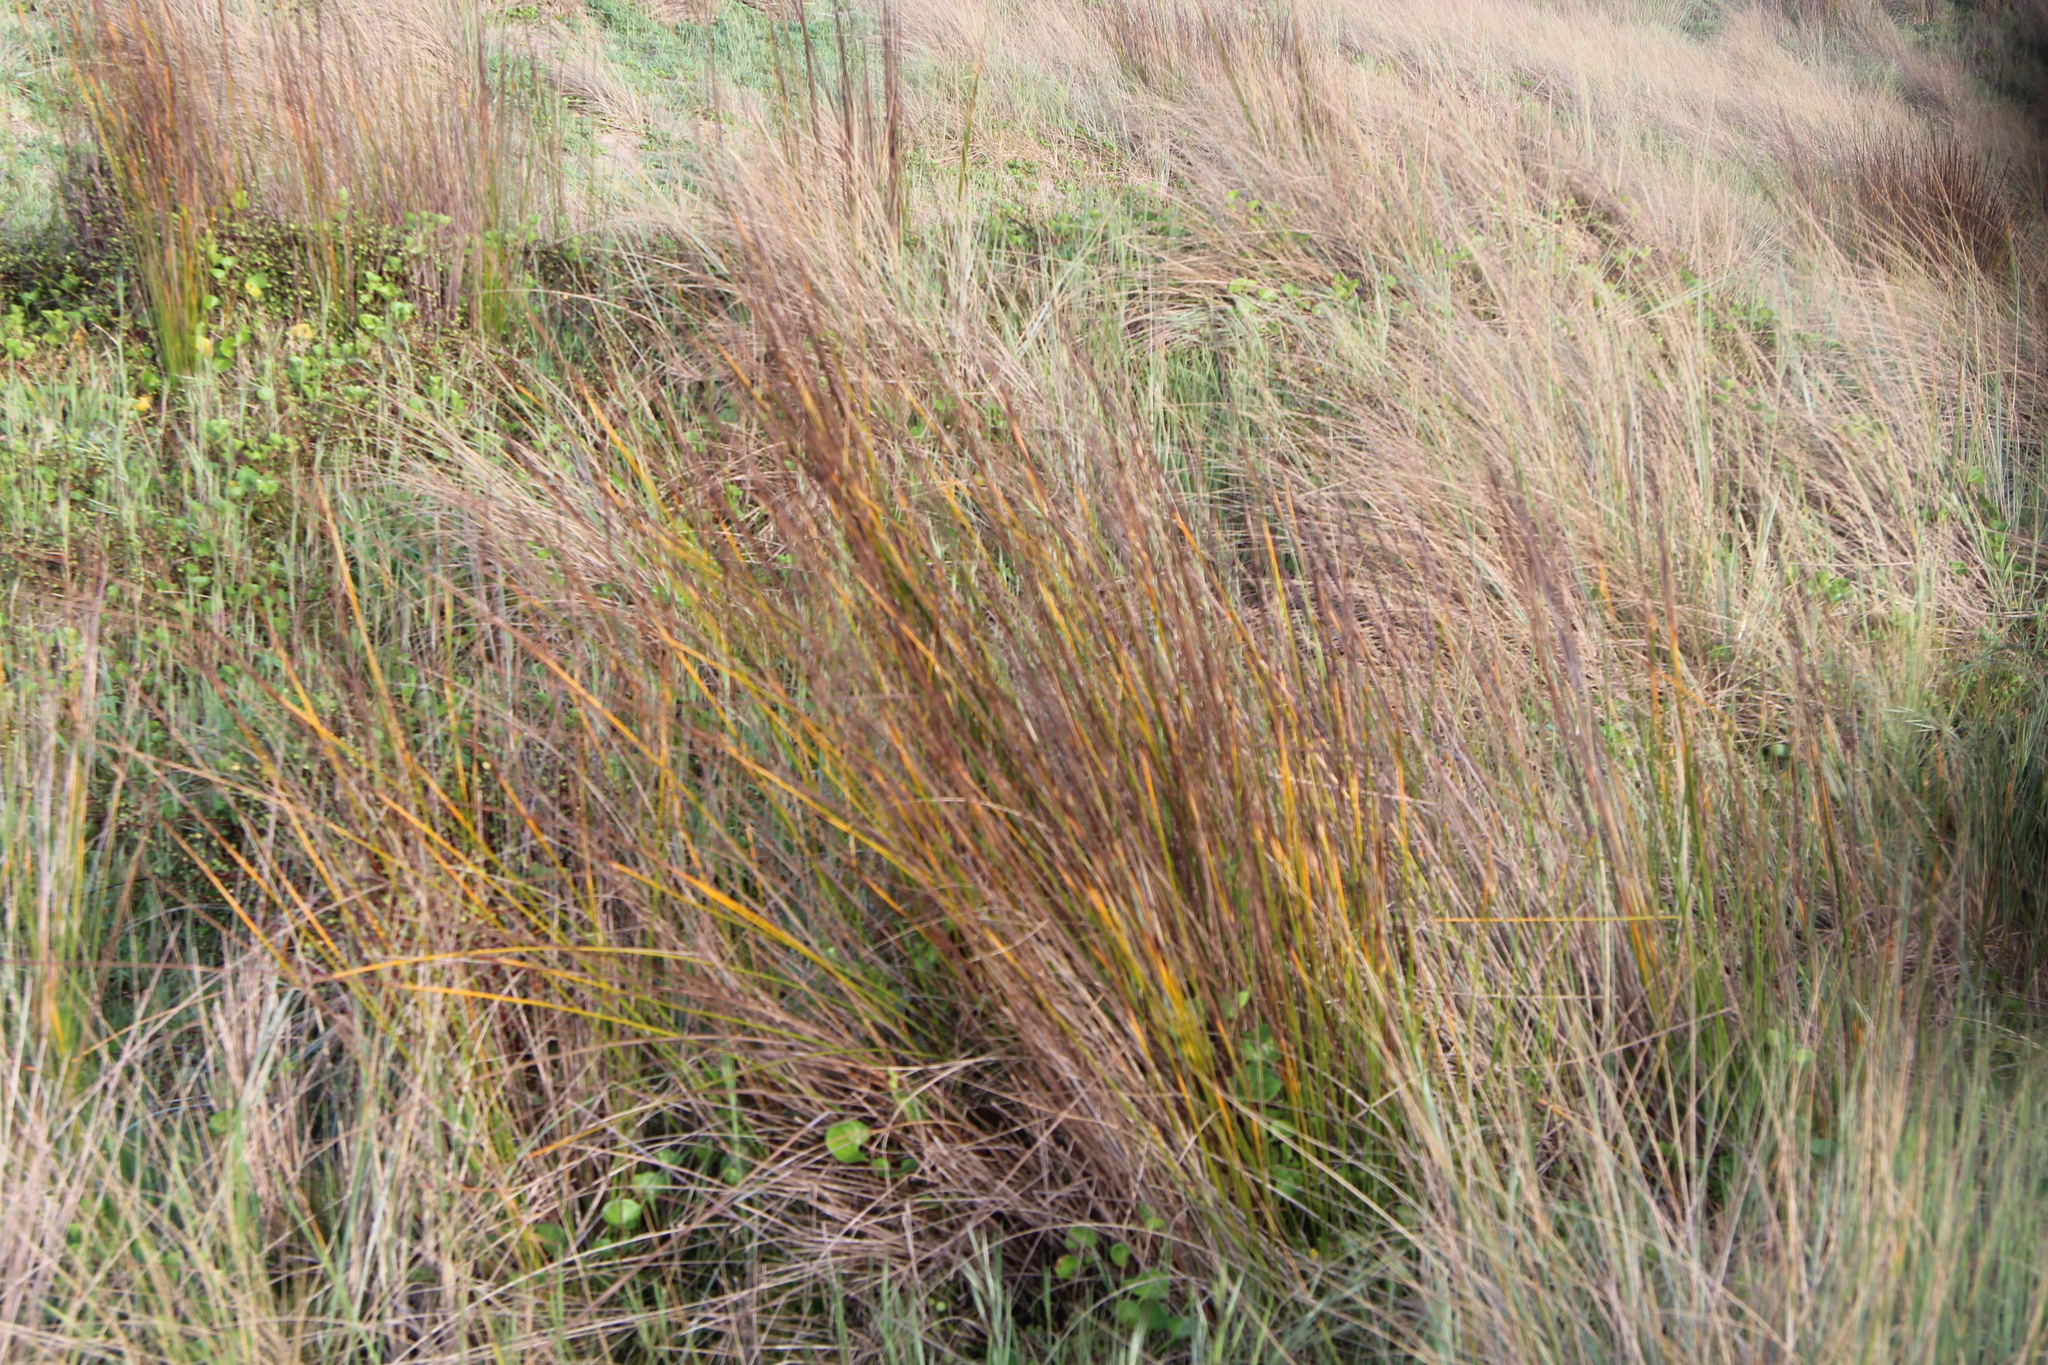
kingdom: Plantae
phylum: Tracheophyta
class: Liliopsida
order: Poales
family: Restionaceae
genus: Apodasmia
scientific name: Apodasmia similis
